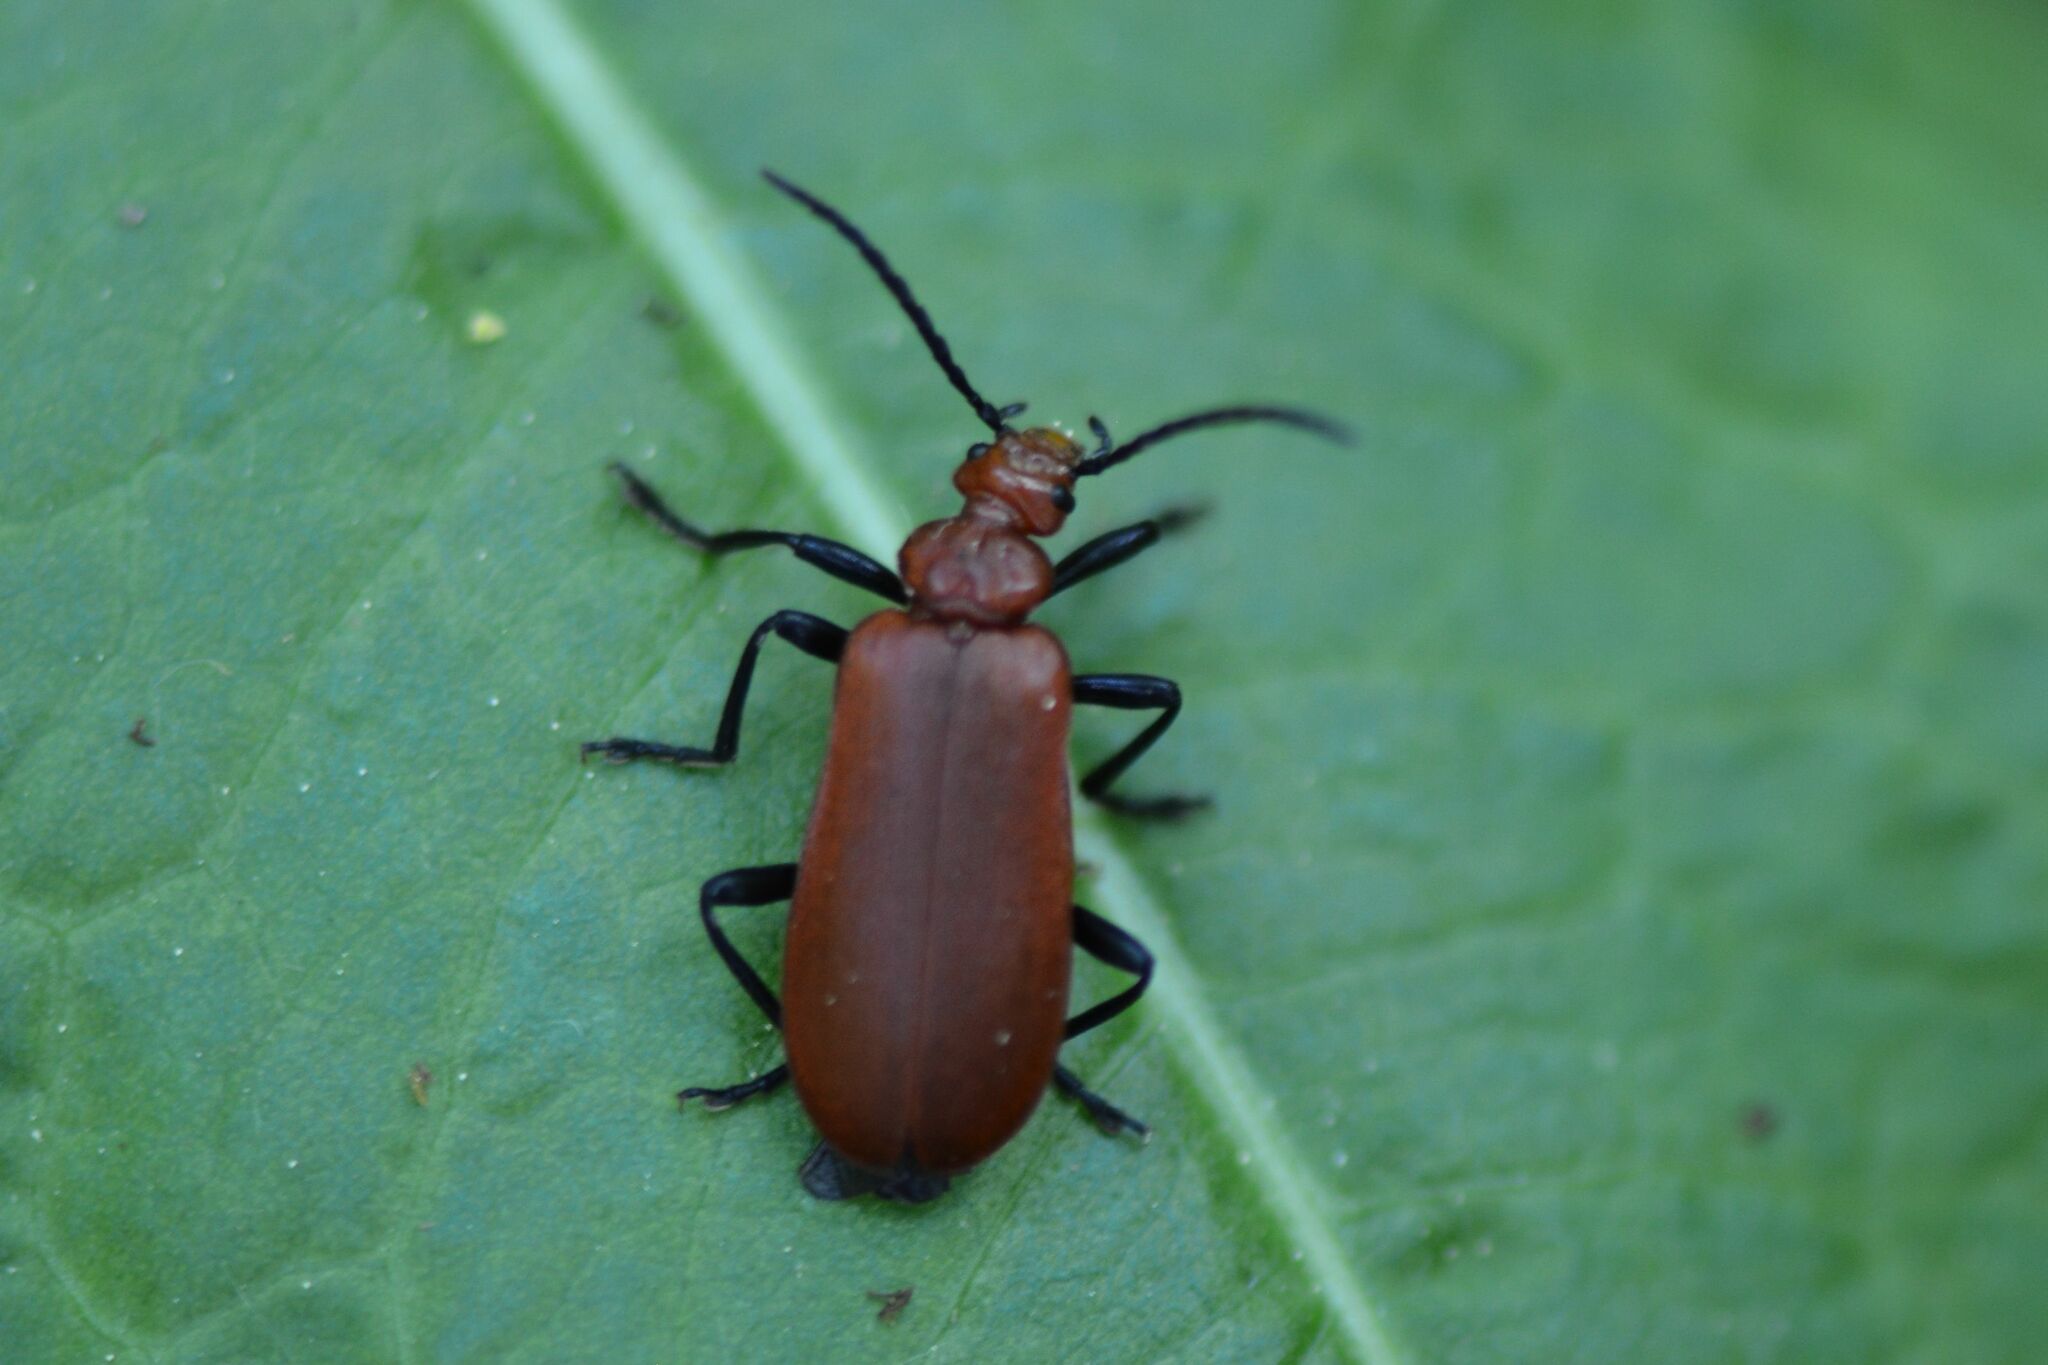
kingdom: Animalia
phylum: Arthropoda
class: Insecta
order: Coleoptera
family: Pyrochroidae
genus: Pyrochroa
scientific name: Pyrochroa serraticornis
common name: Red-headed cardinal beetle
